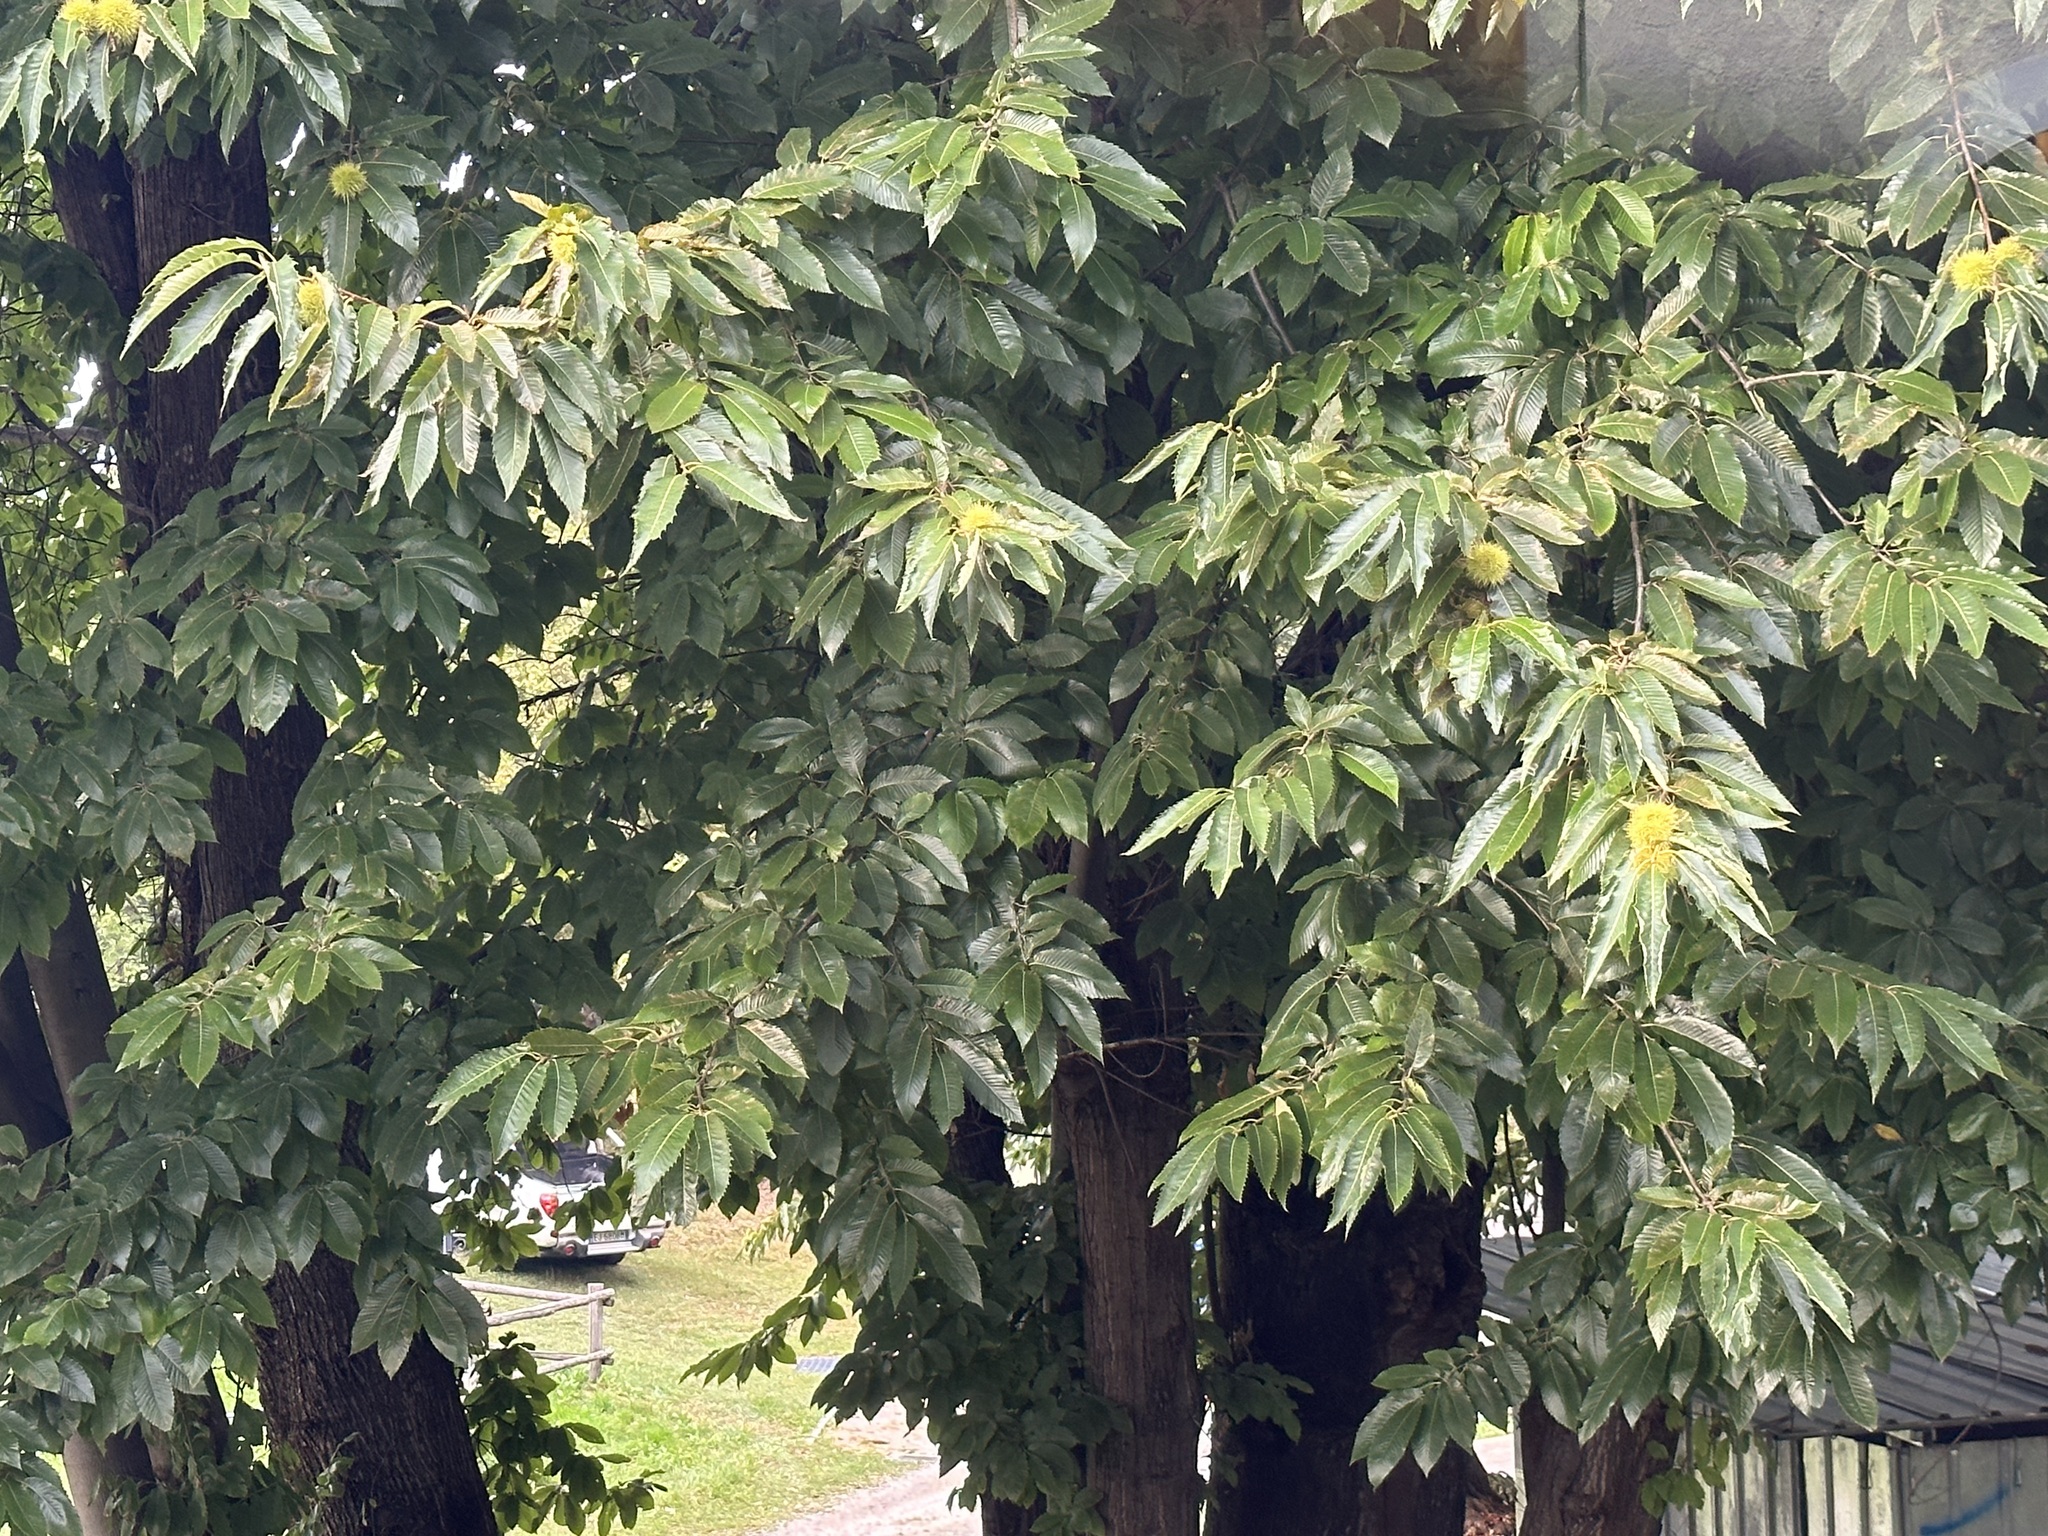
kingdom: Plantae
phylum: Tracheophyta
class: Magnoliopsida
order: Fagales
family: Fagaceae
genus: Castanea
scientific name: Castanea sativa
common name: Sweet chestnut
